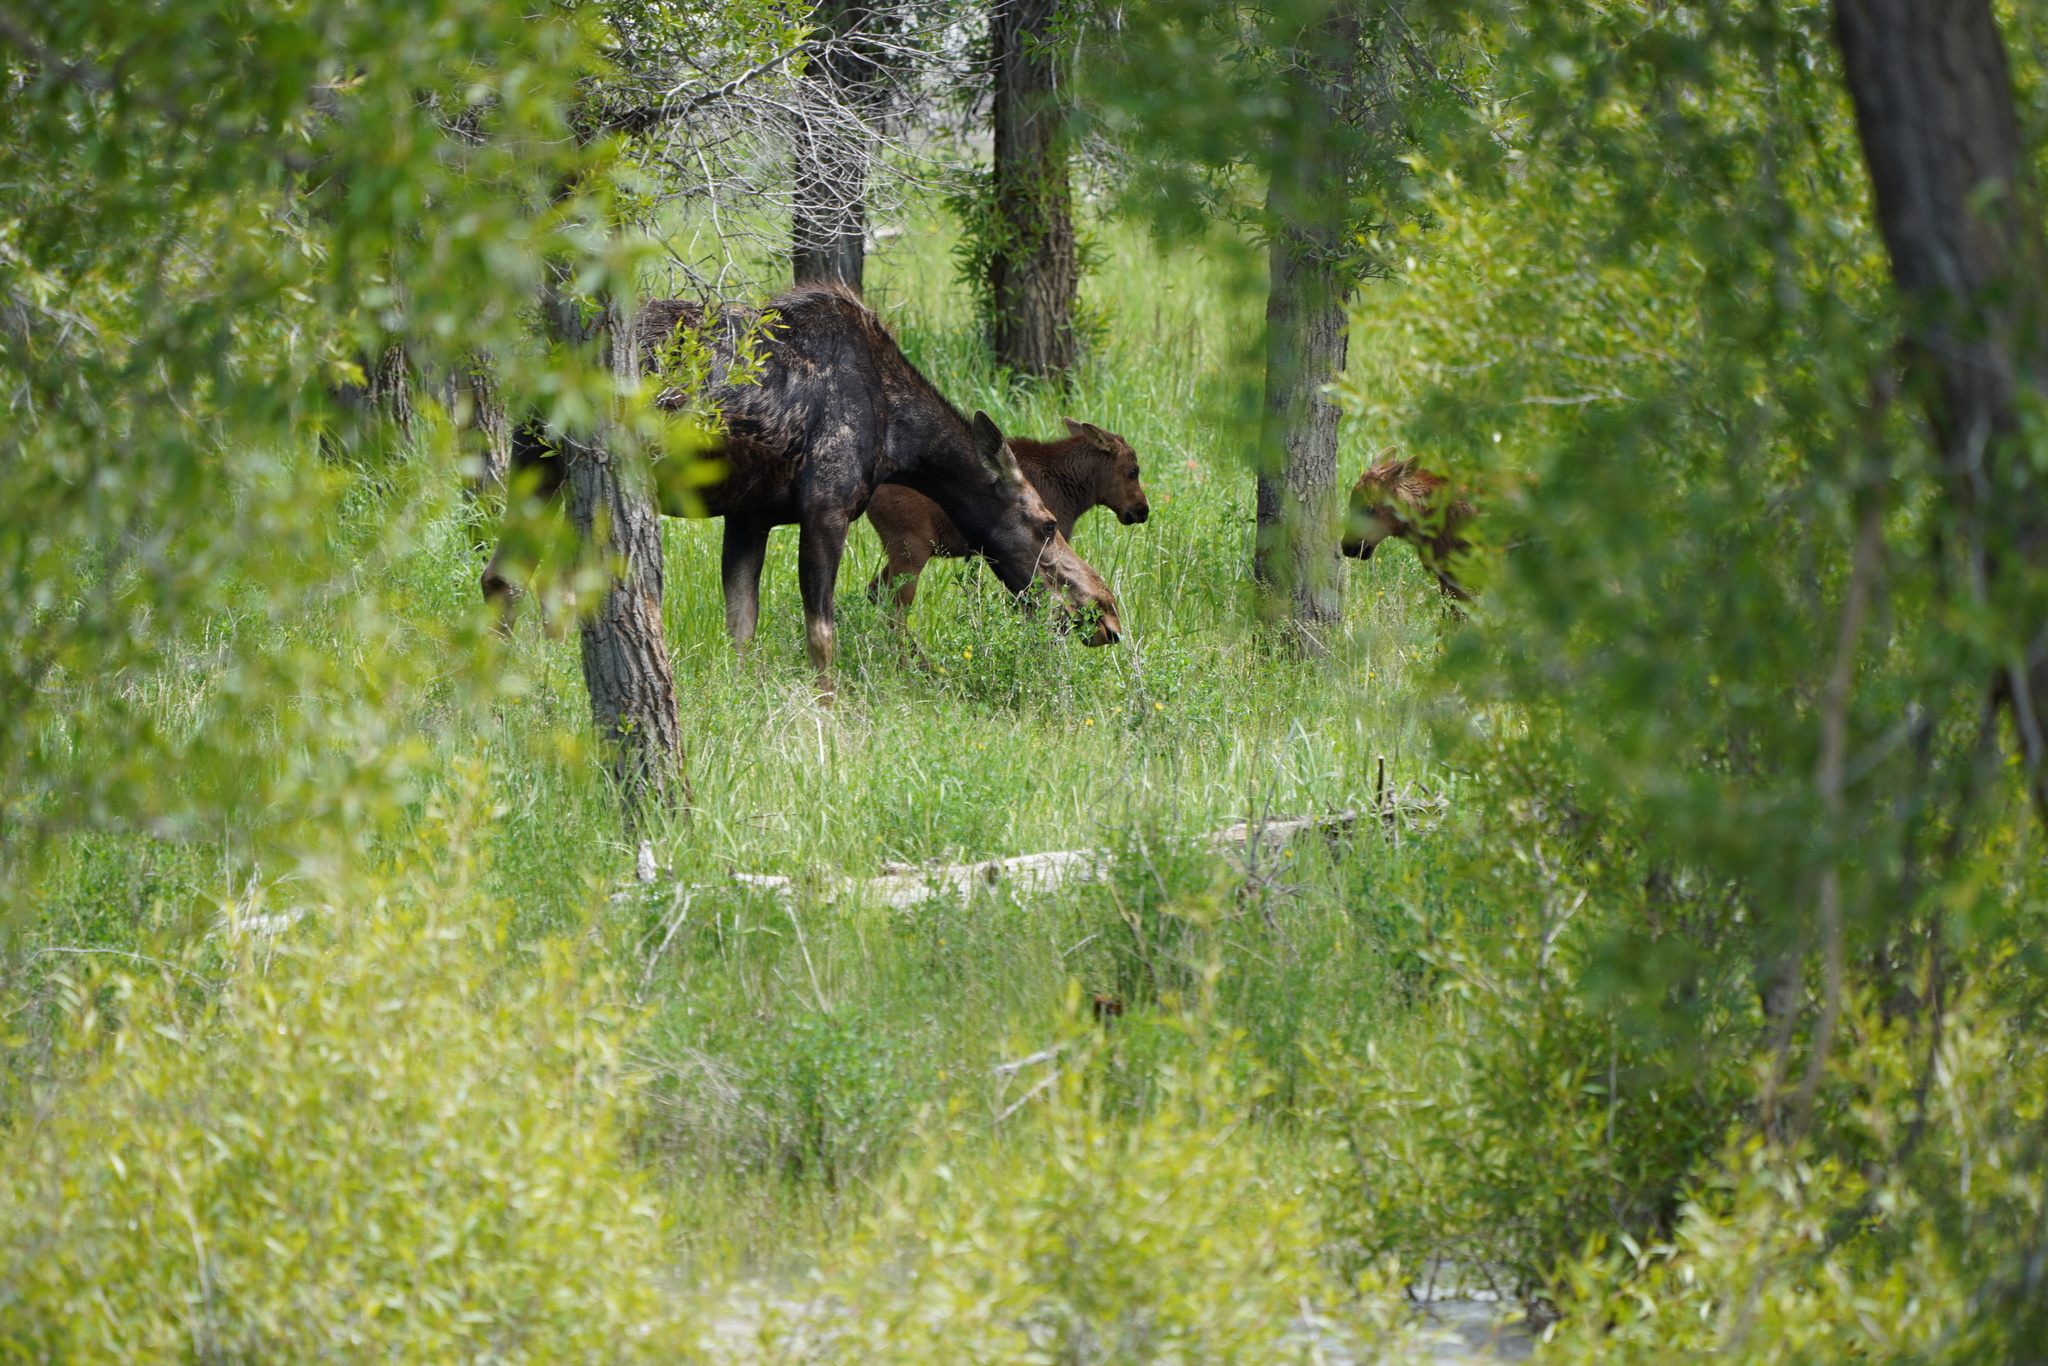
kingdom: Animalia
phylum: Chordata
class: Mammalia
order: Artiodactyla
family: Cervidae
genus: Alces
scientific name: Alces alces
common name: Moose
